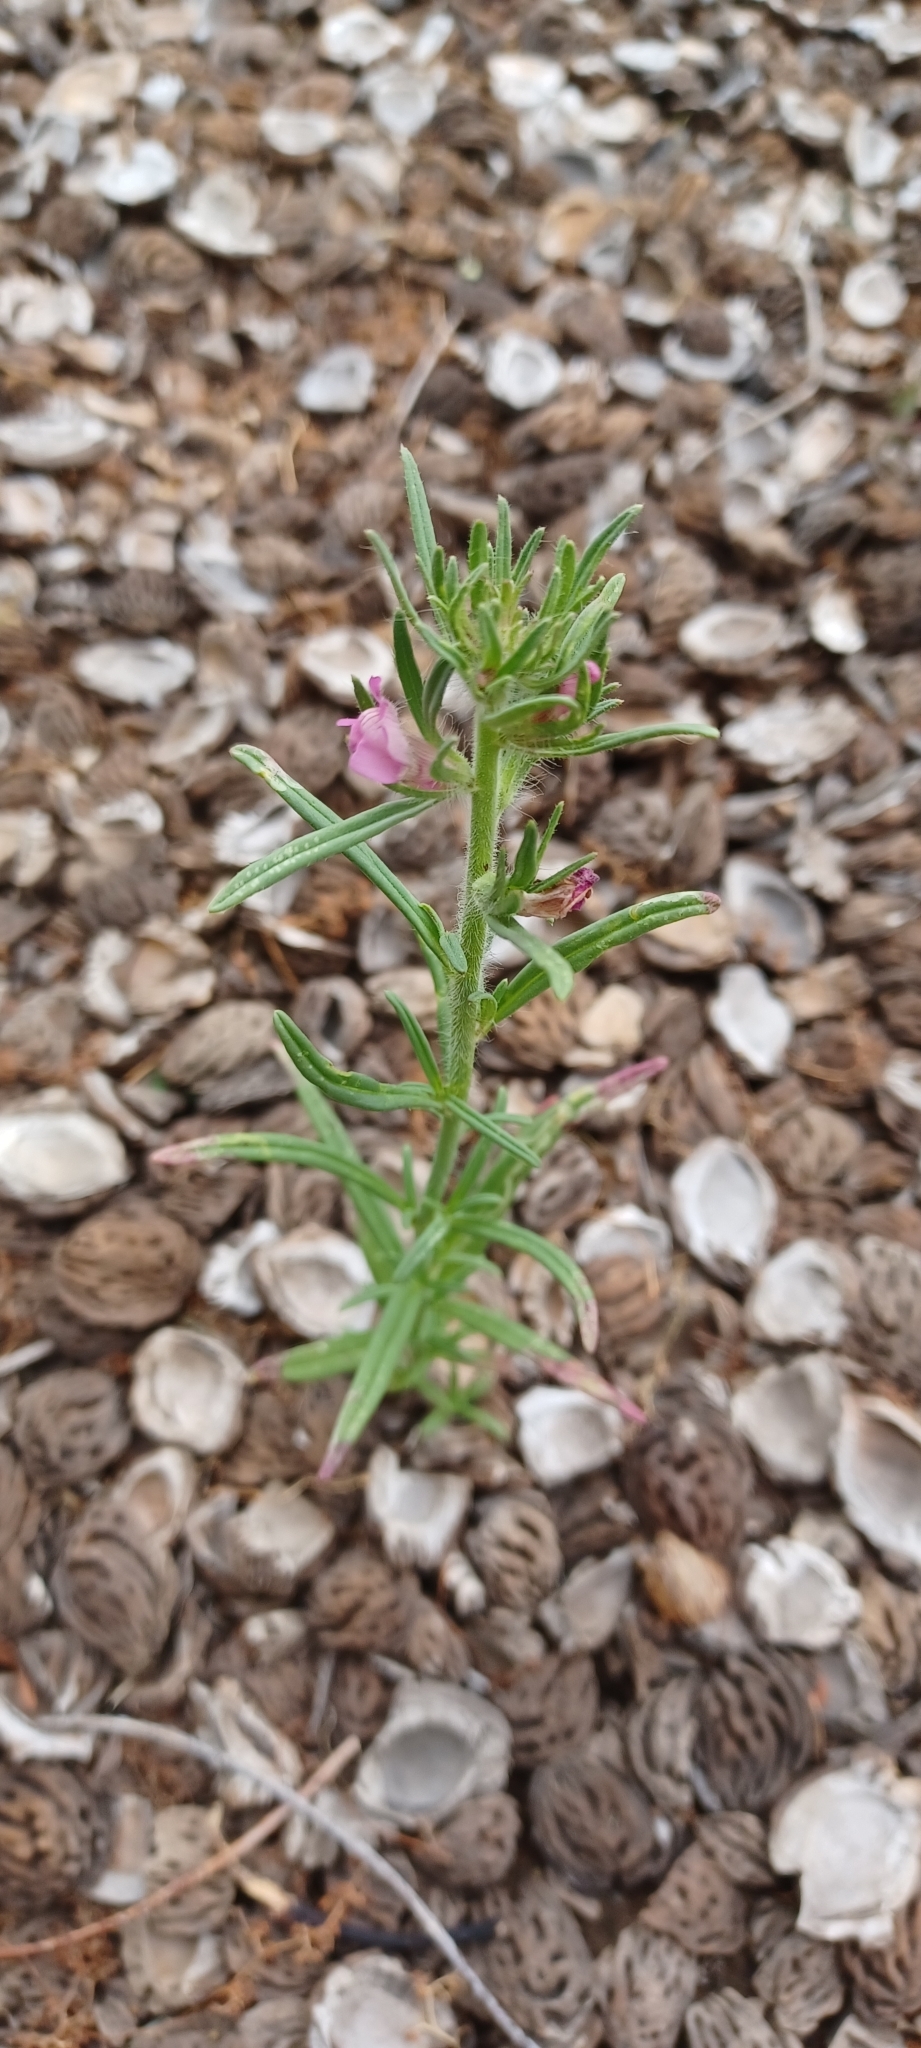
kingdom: Plantae
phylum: Tracheophyta
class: Magnoliopsida
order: Lamiales
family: Plantaginaceae
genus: Misopates
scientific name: Misopates orontium
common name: Weasel's-snout
